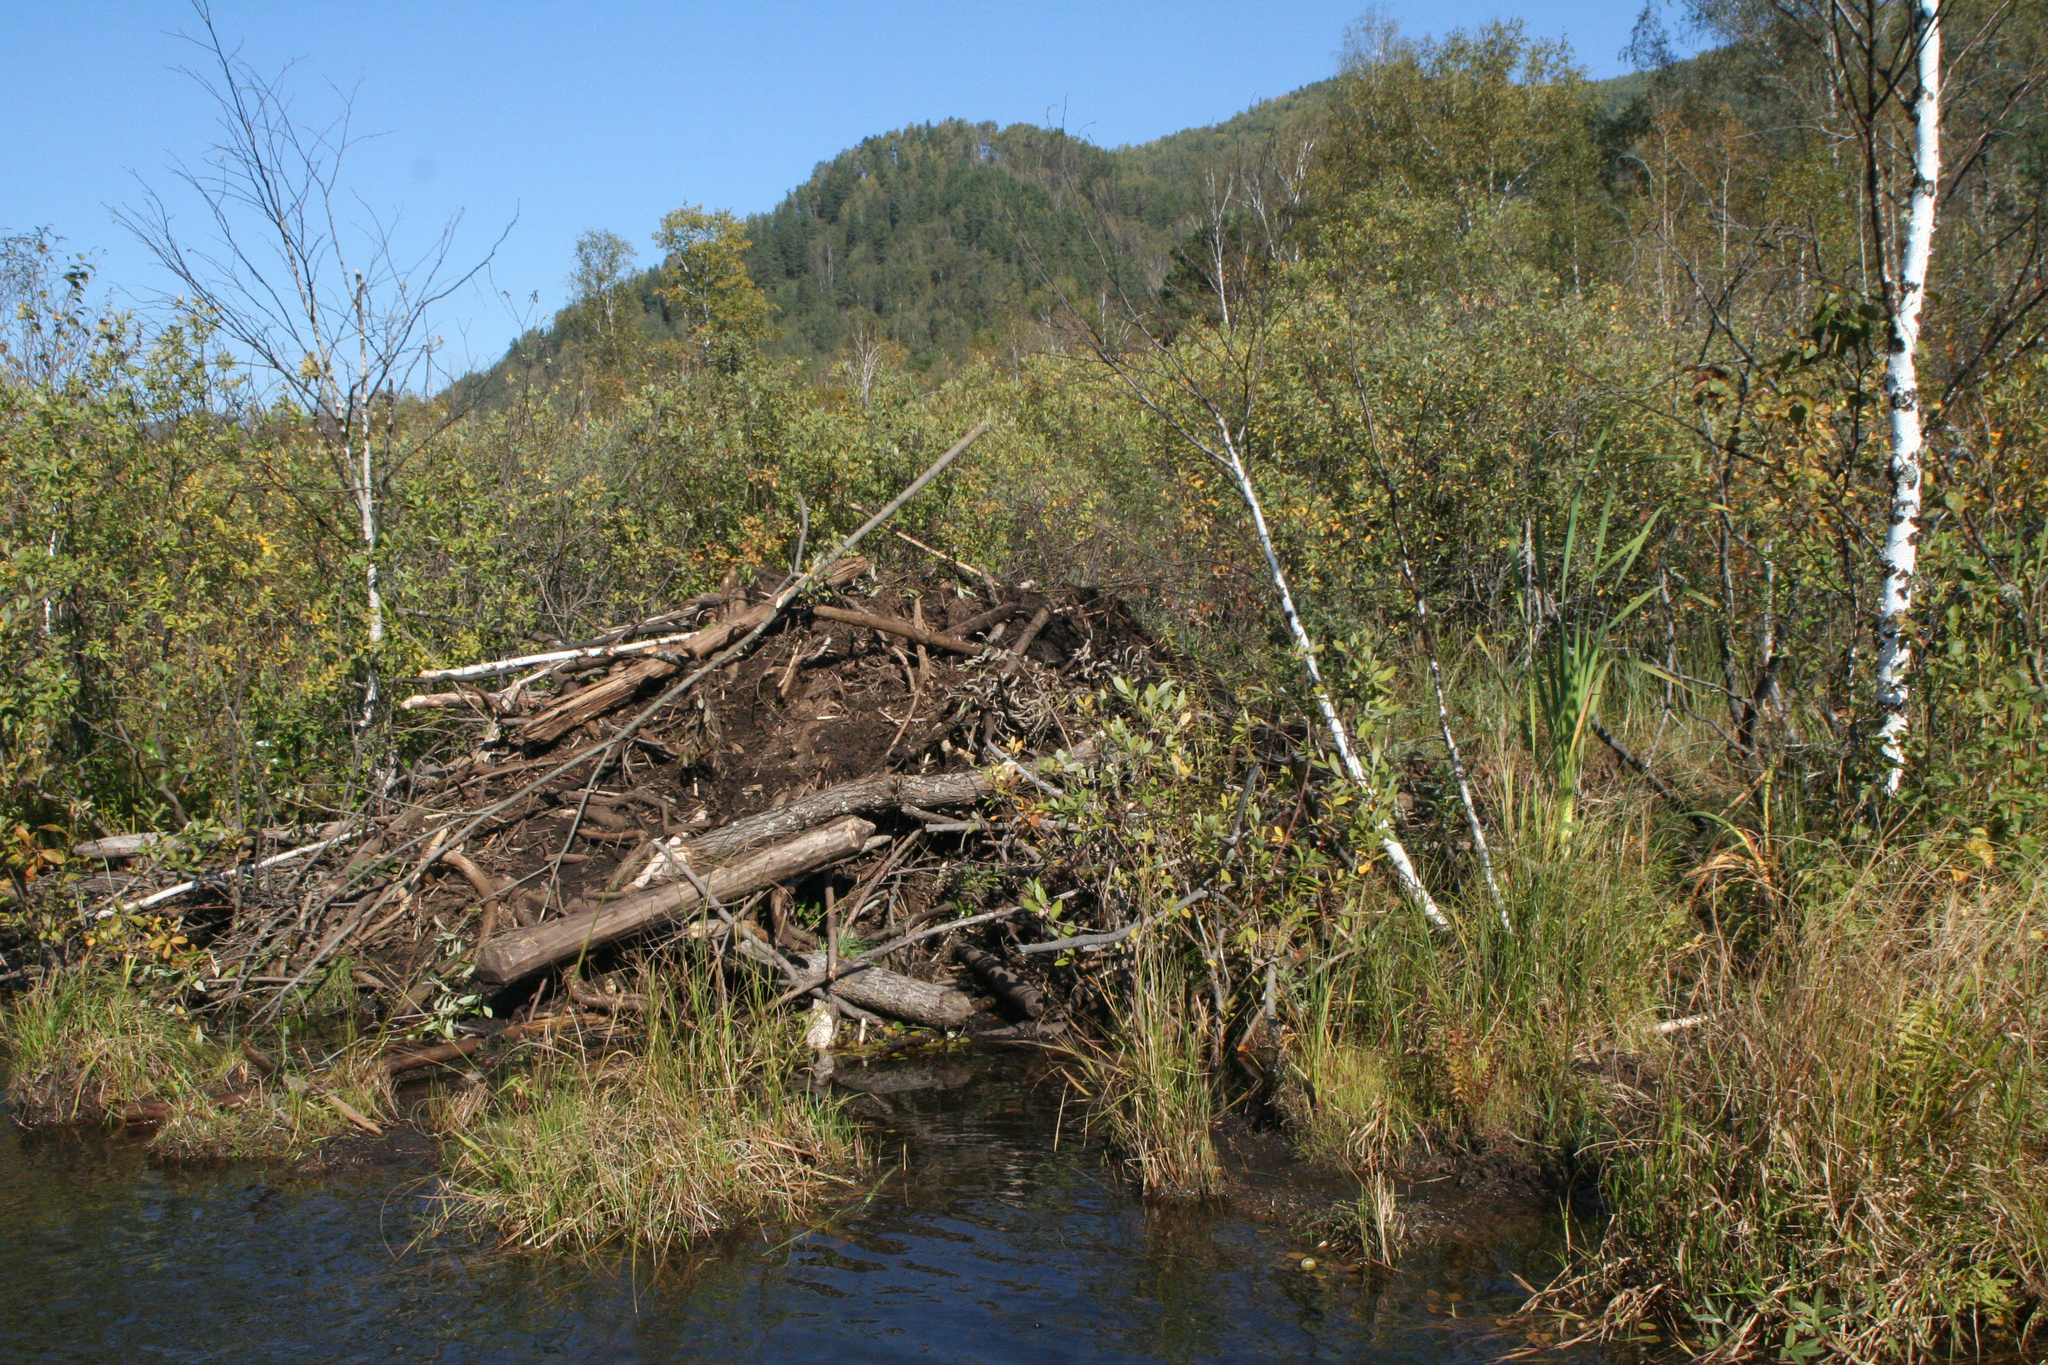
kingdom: Animalia
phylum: Chordata
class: Mammalia
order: Rodentia
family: Castoridae
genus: Castor
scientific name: Castor fiber
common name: Eurasian beaver
